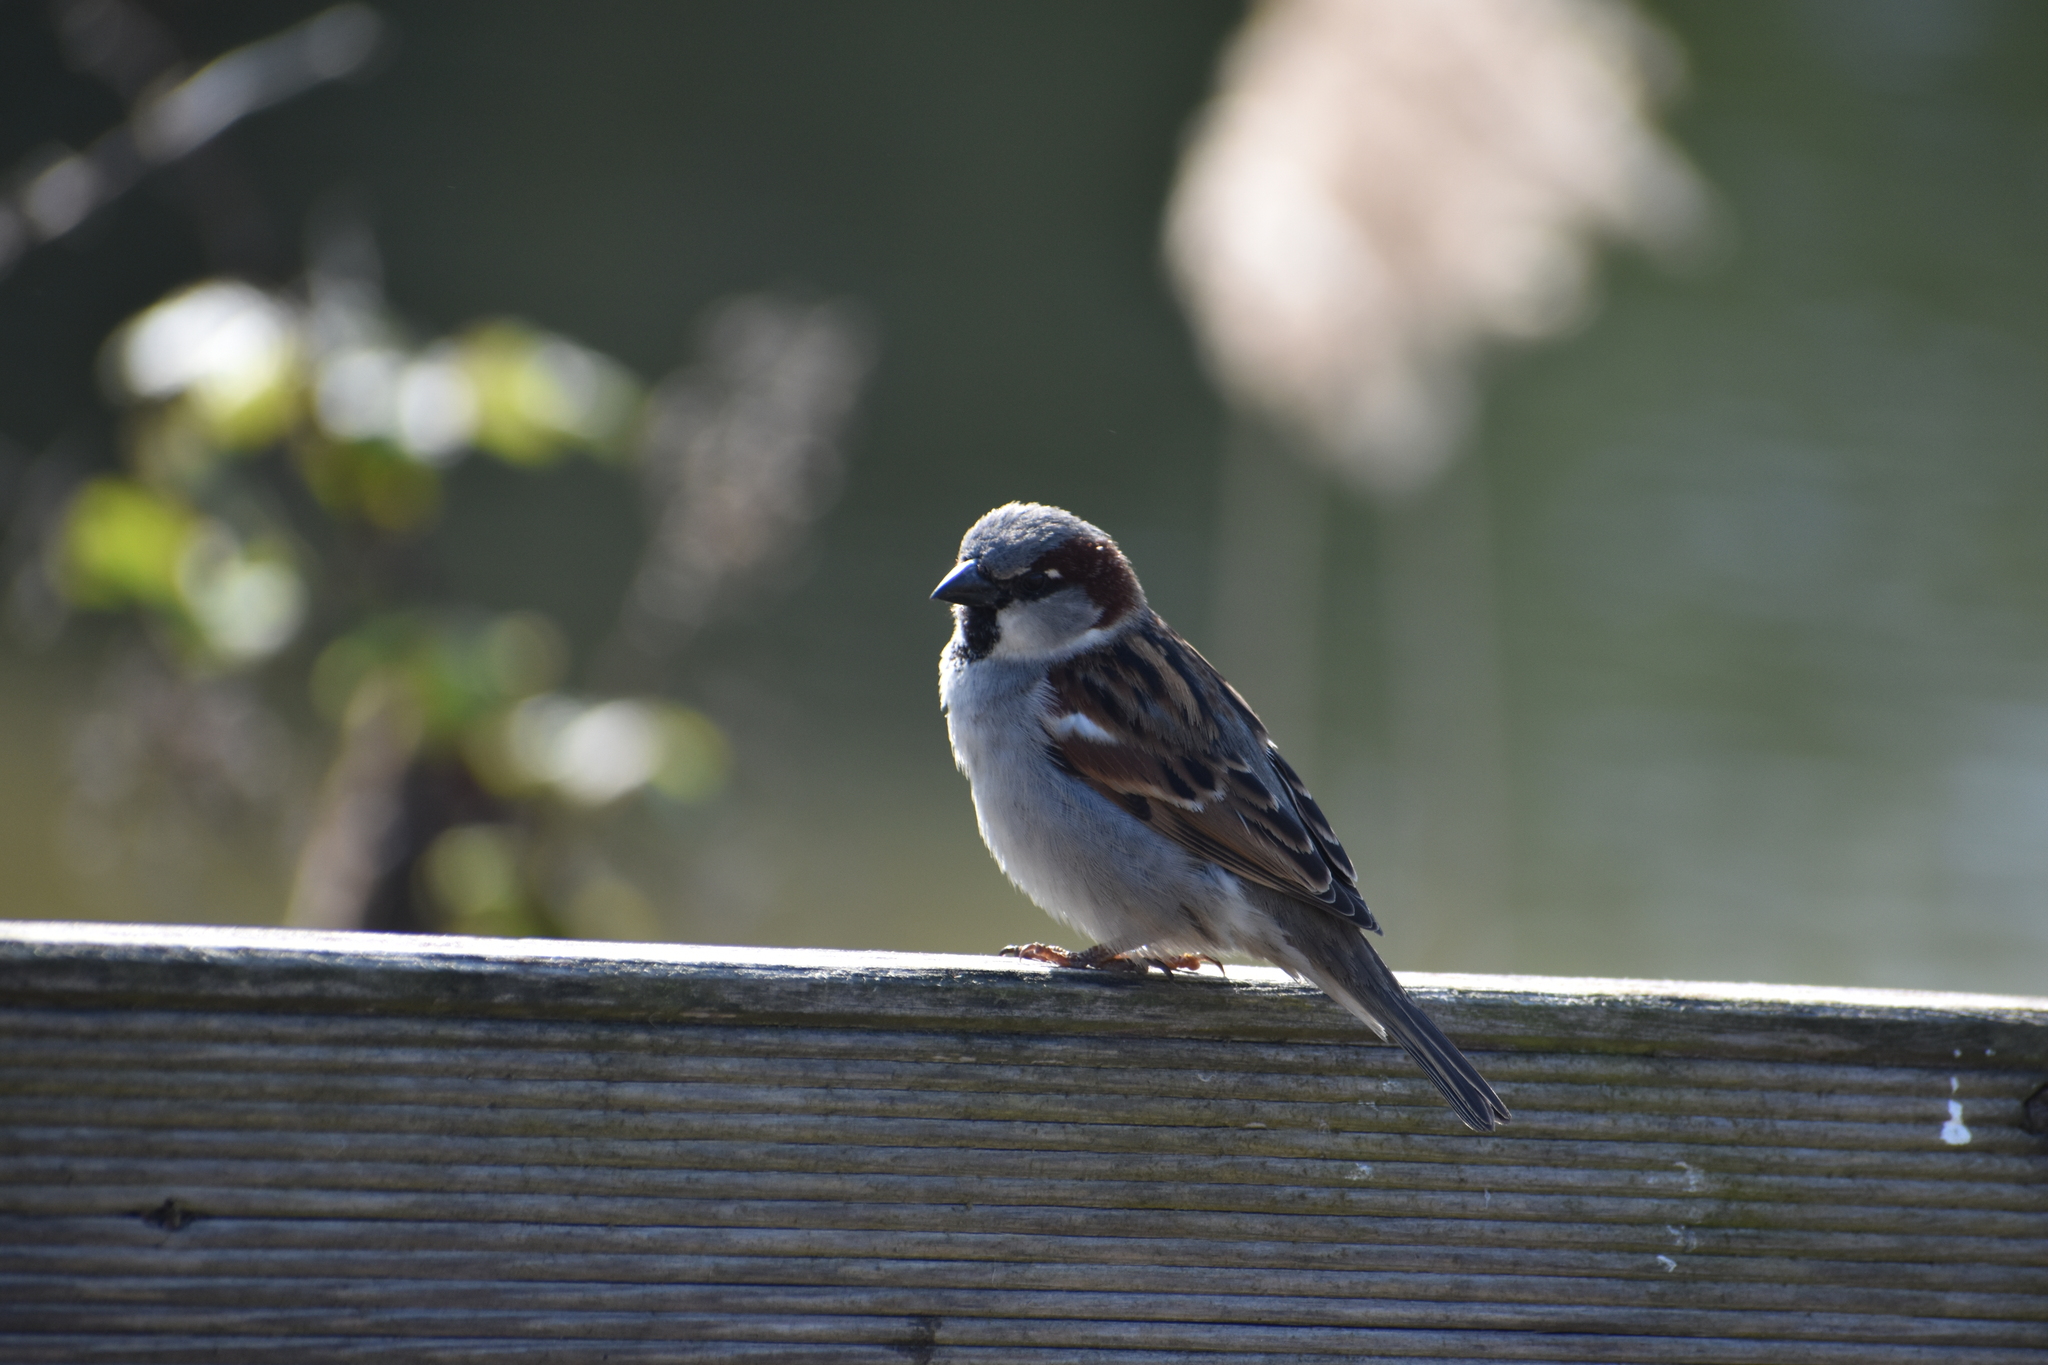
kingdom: Animalia
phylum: Chordata
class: Aves
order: Passeriformes
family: Passeridae
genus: Passer
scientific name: Passer domesticus
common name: House sparrow
